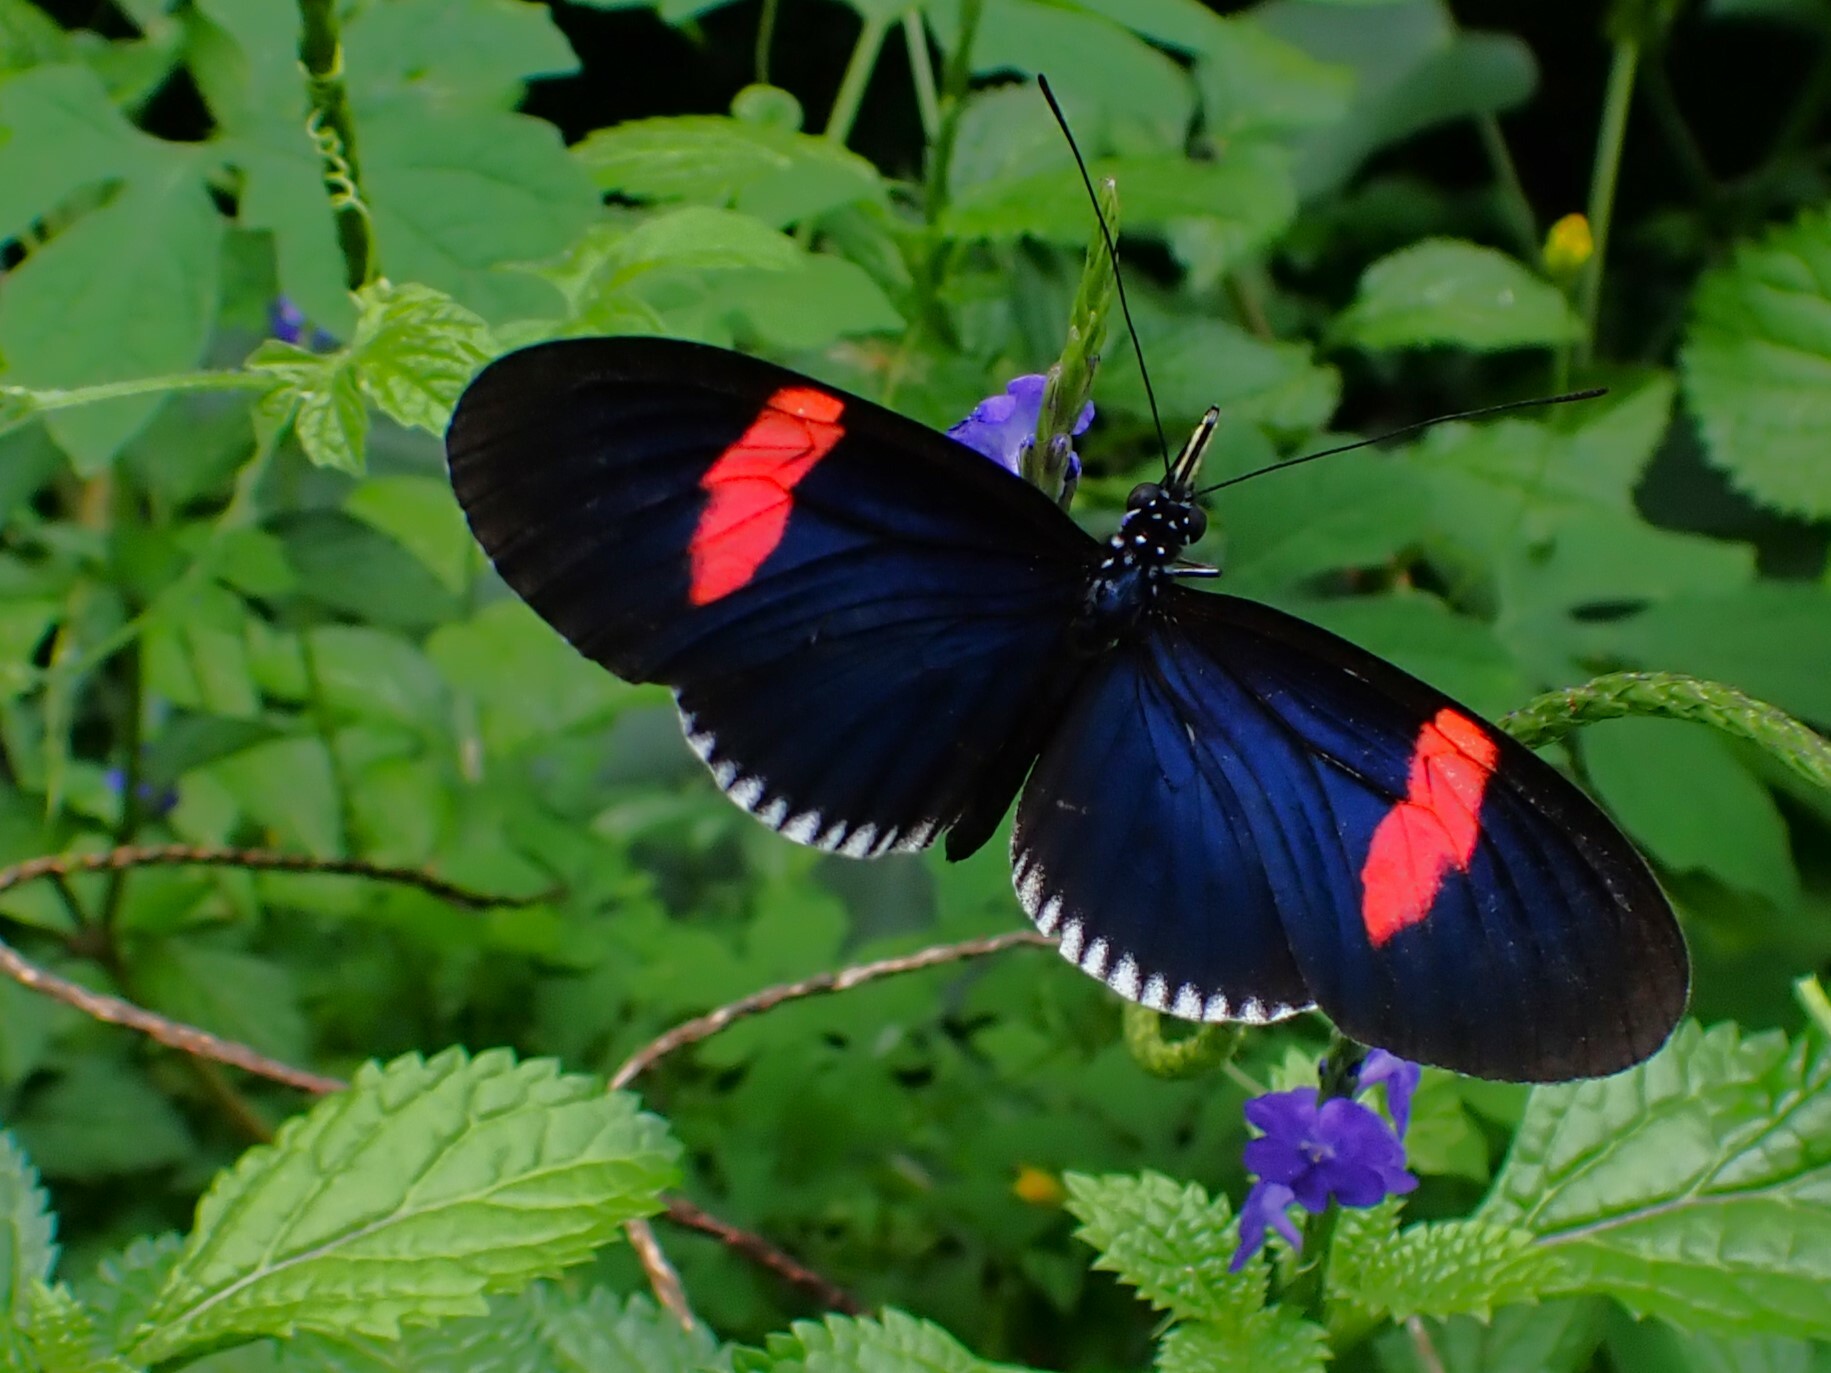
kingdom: Animalia
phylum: Arthropoda
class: Insecta
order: Lepidoptera
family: Nymphalidae
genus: Heliconius
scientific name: Heliconius erato
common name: Common patch longwing
